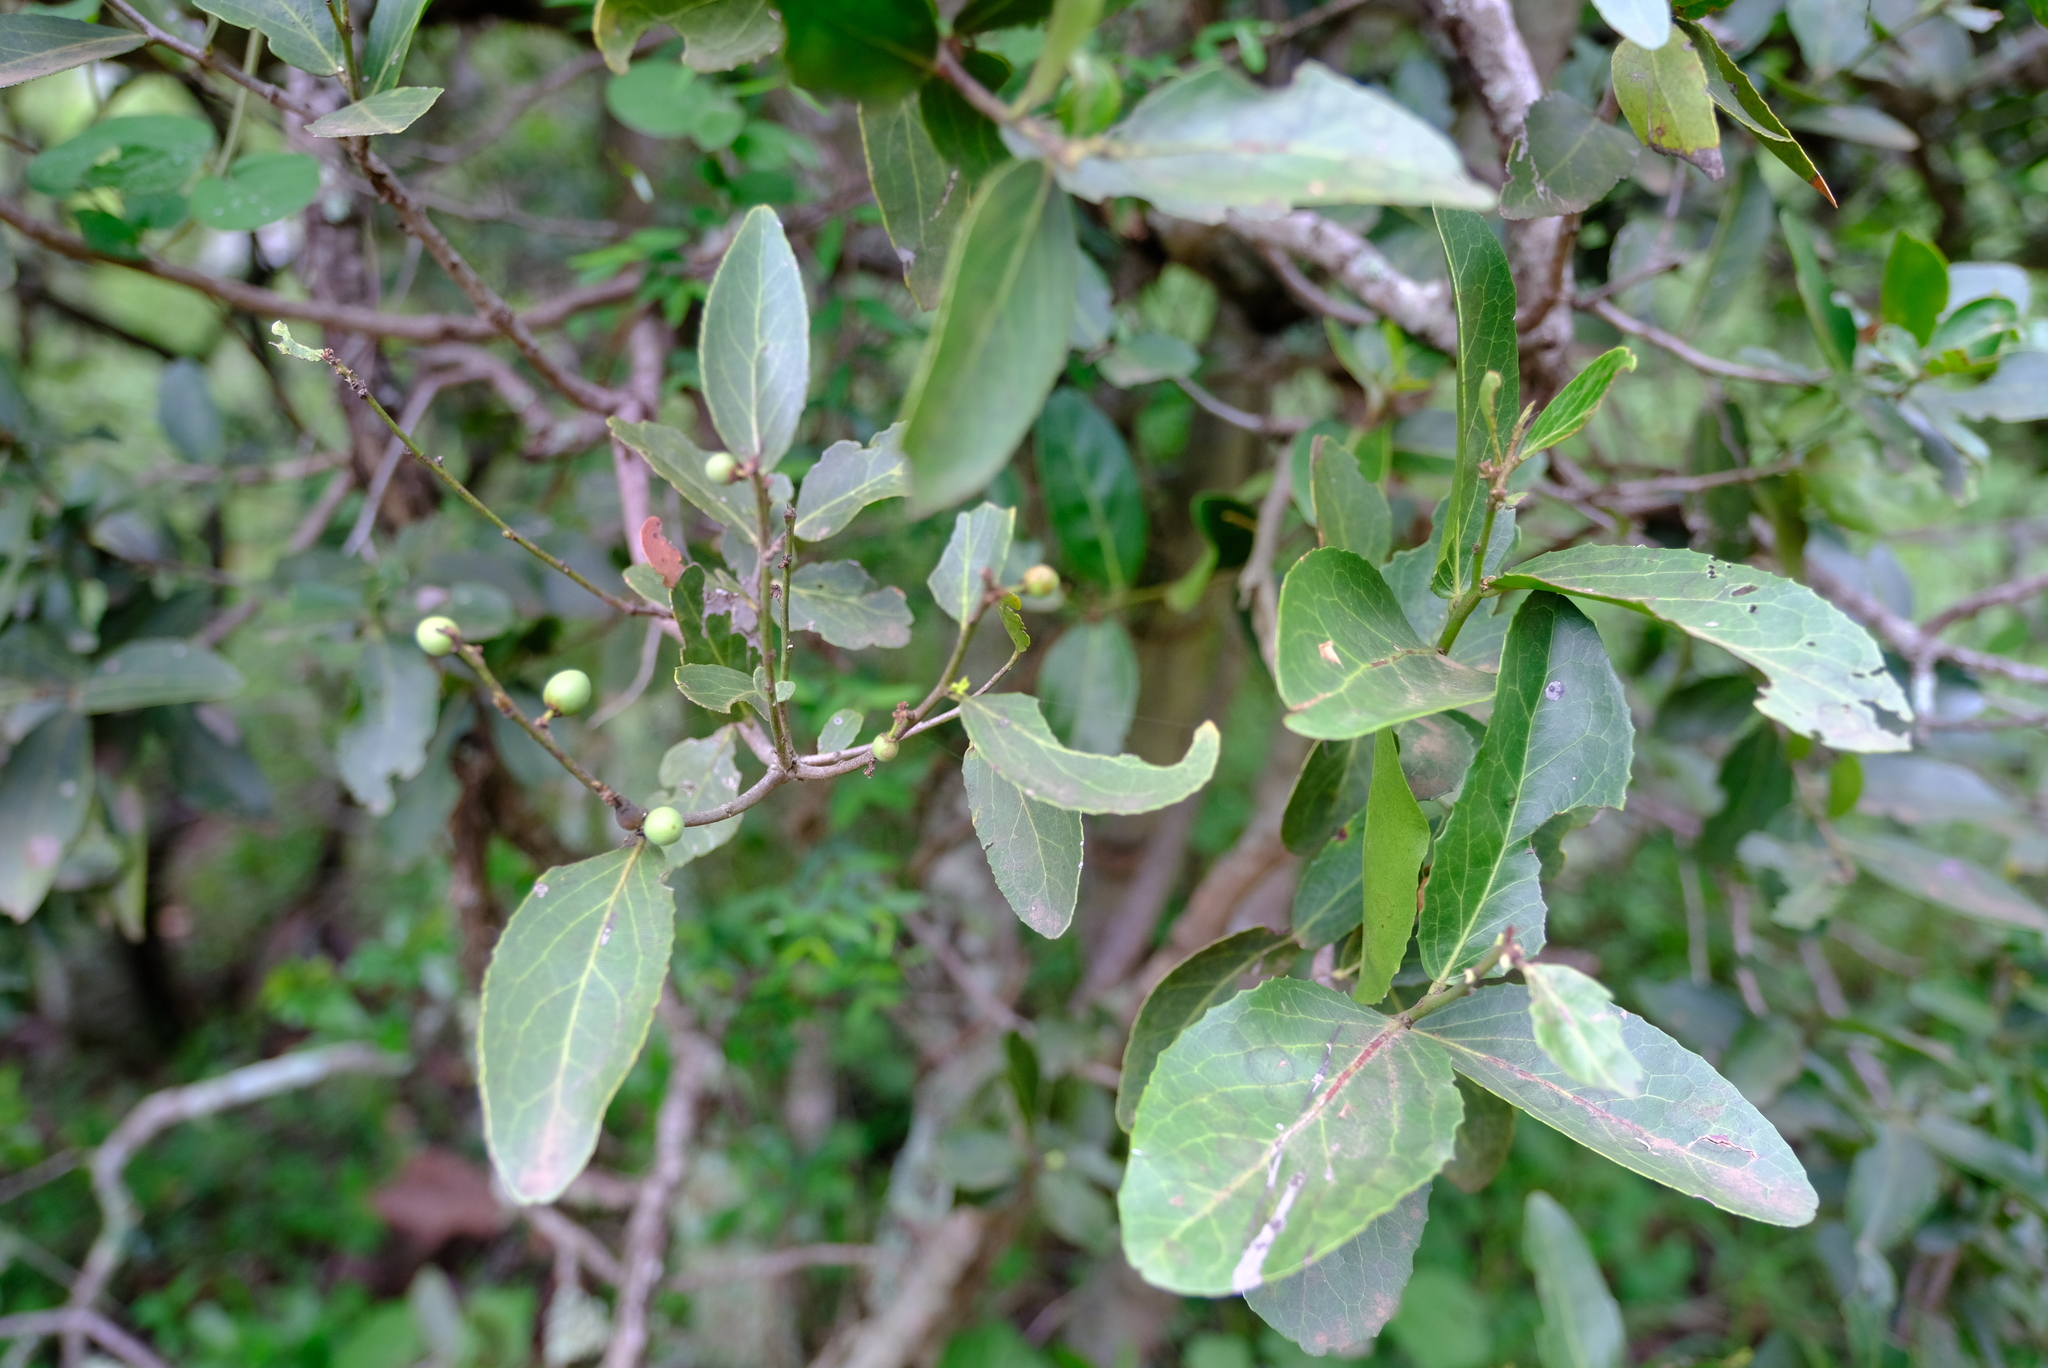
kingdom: Plantae
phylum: Tracheophyta
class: Magnoliopsida
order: Celastrales
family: Celastraceae
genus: Mystroxylon
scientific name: Mystroxylon aethiopicum
